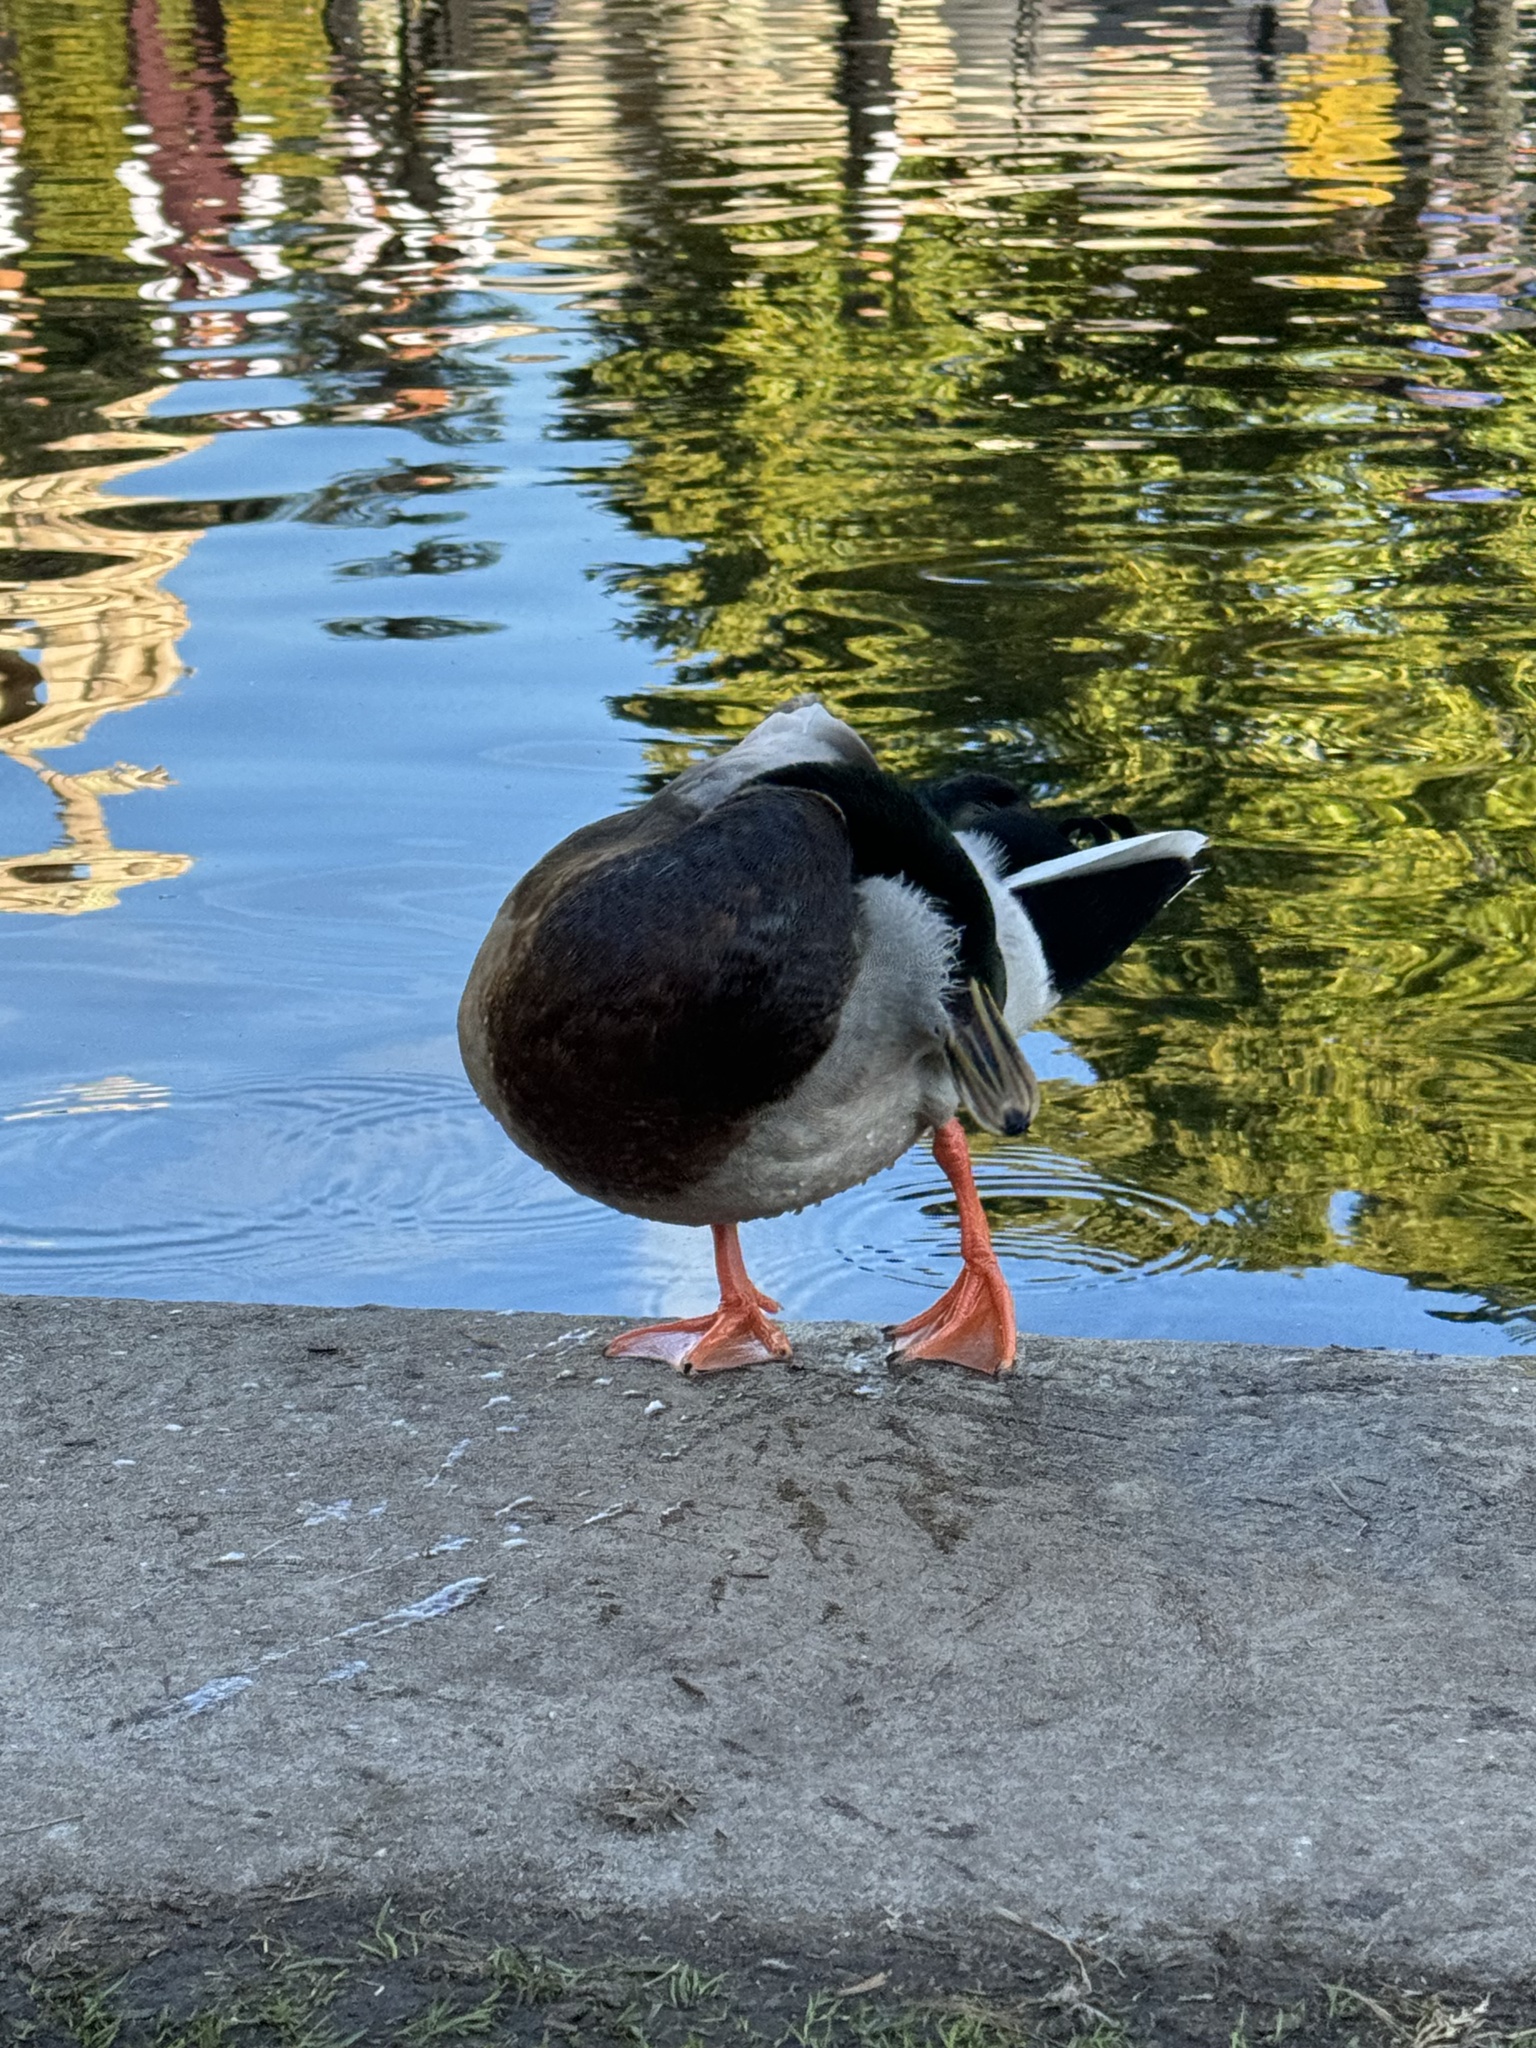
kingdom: Animalia
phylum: Chordata
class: Aves
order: Anseriformes
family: Anatidae
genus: Anas
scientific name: Anas platyrhynchos
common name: Mallard
